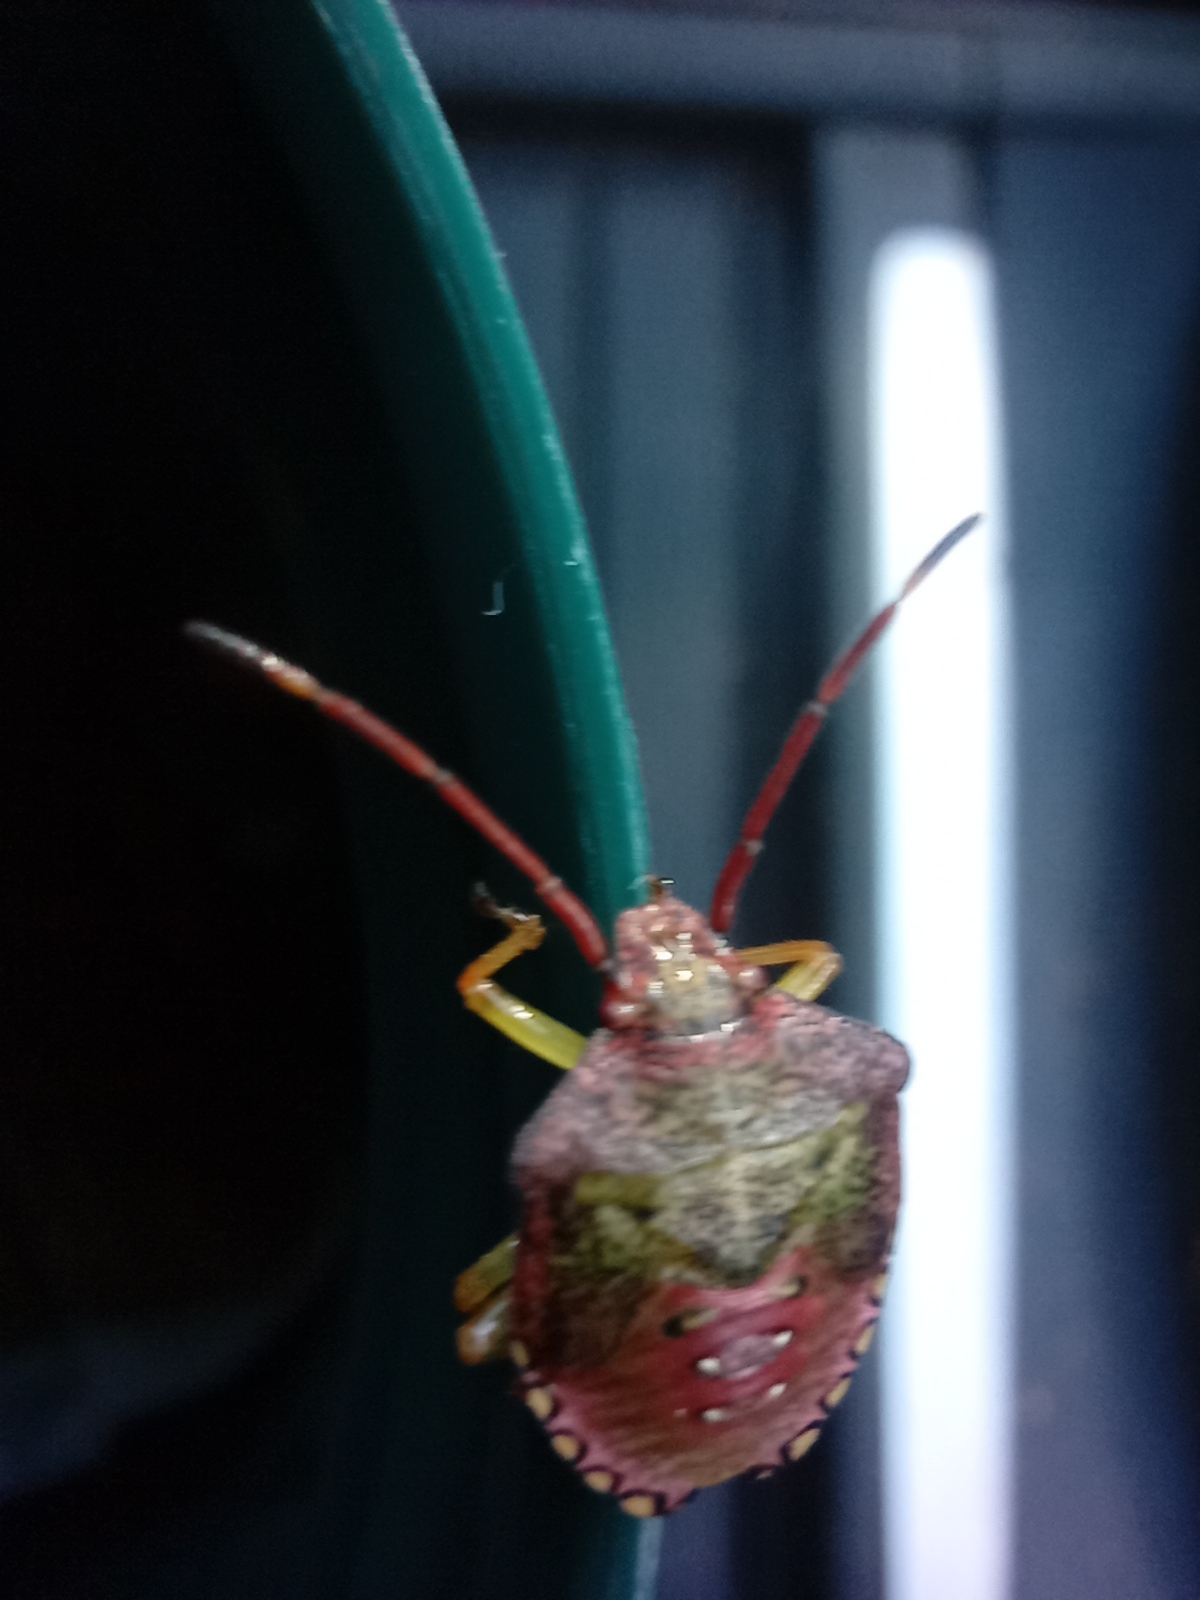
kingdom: Animalia
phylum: Arthropoda
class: Insecta
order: Hemiptera
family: Acanthosomatidae
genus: Acanthosoma
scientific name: Acanthosoma haemorrhoidale
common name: Hawthorn shieldbug
